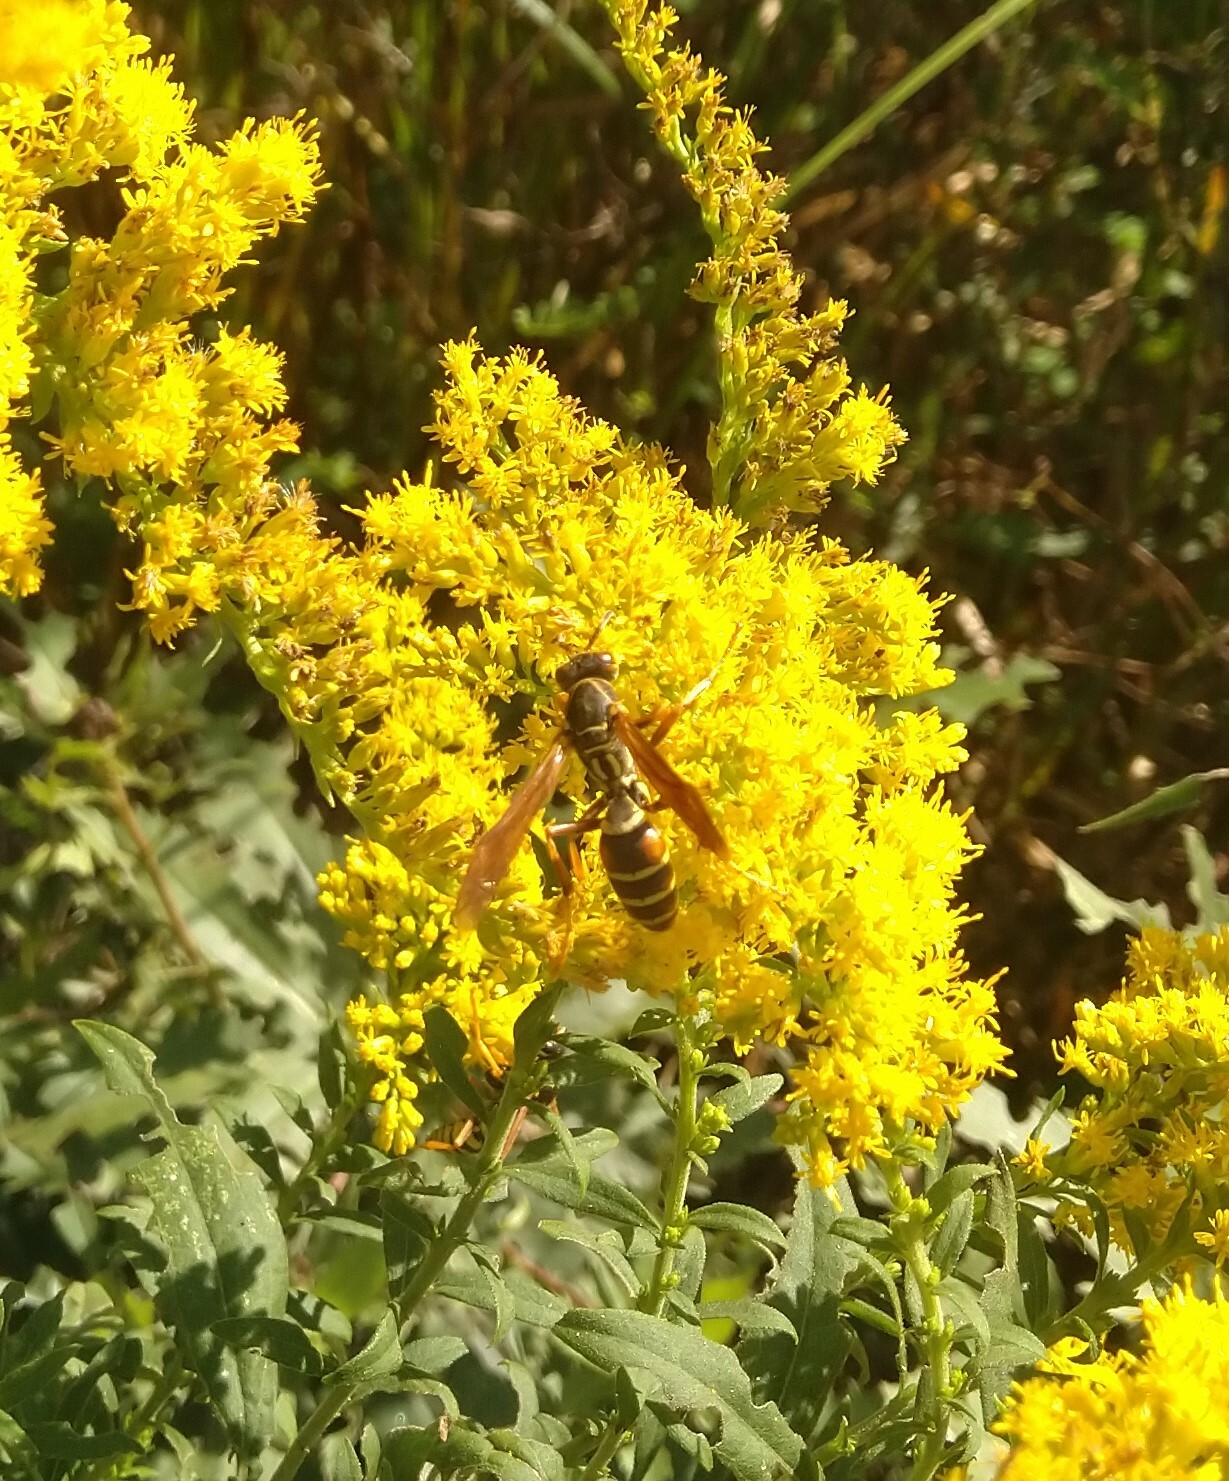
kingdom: Animalia
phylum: Arthropoda
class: Insecta
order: Hymenoptera
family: Eumenidae
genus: Polistes
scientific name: Polistes fuscatus
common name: Dark paper wasp
